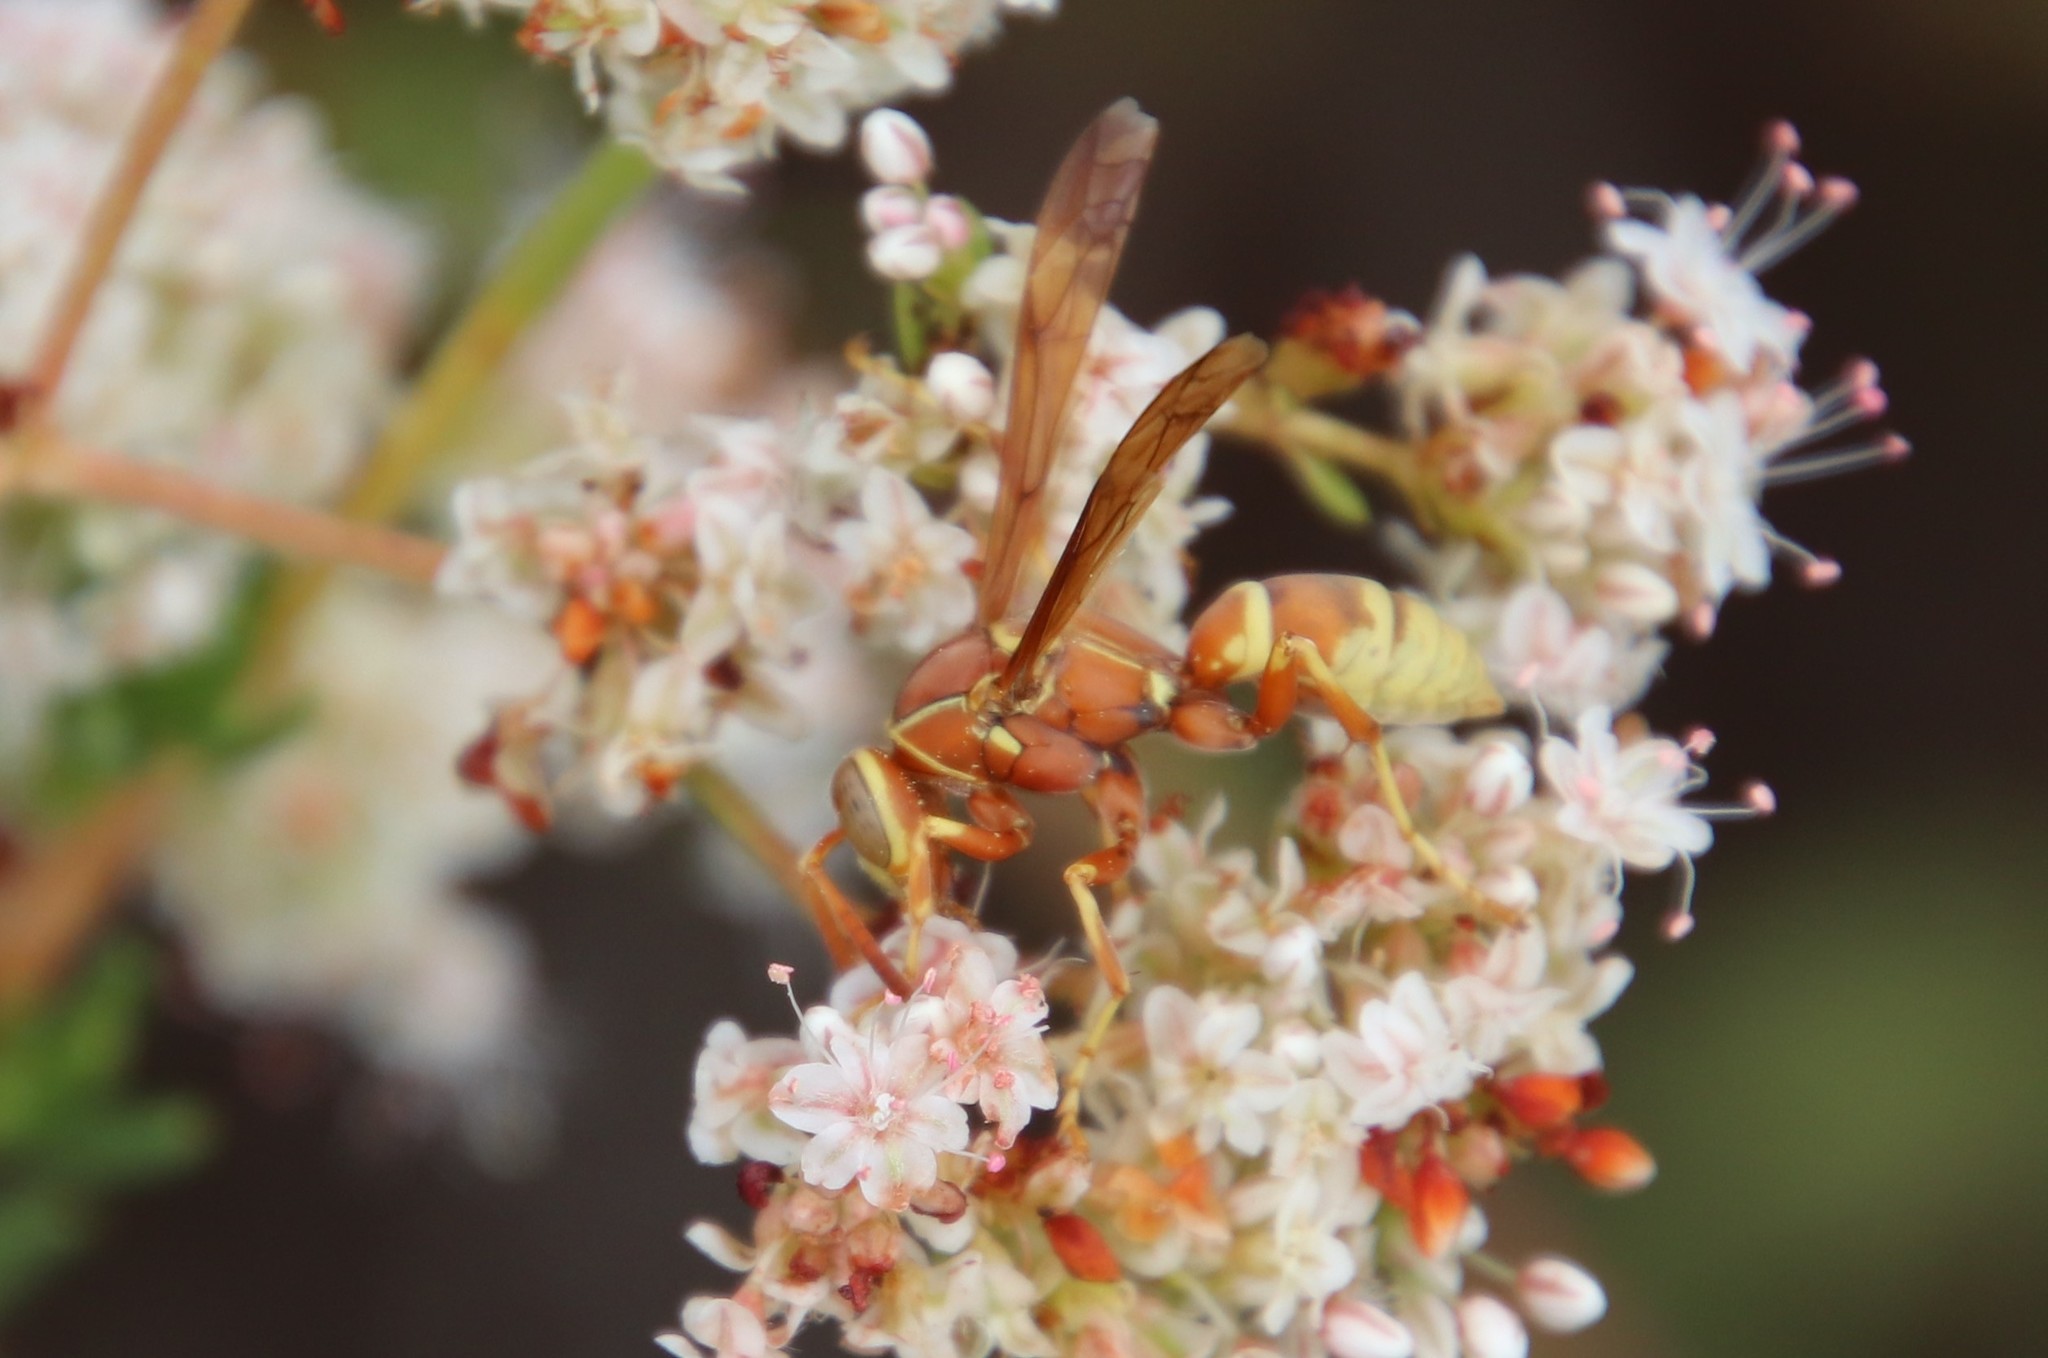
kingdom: Animalia
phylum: Arthropoda
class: Insecta
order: Hymenoptera
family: Eumenidae
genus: Polistes
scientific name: Polistes dorsalis
